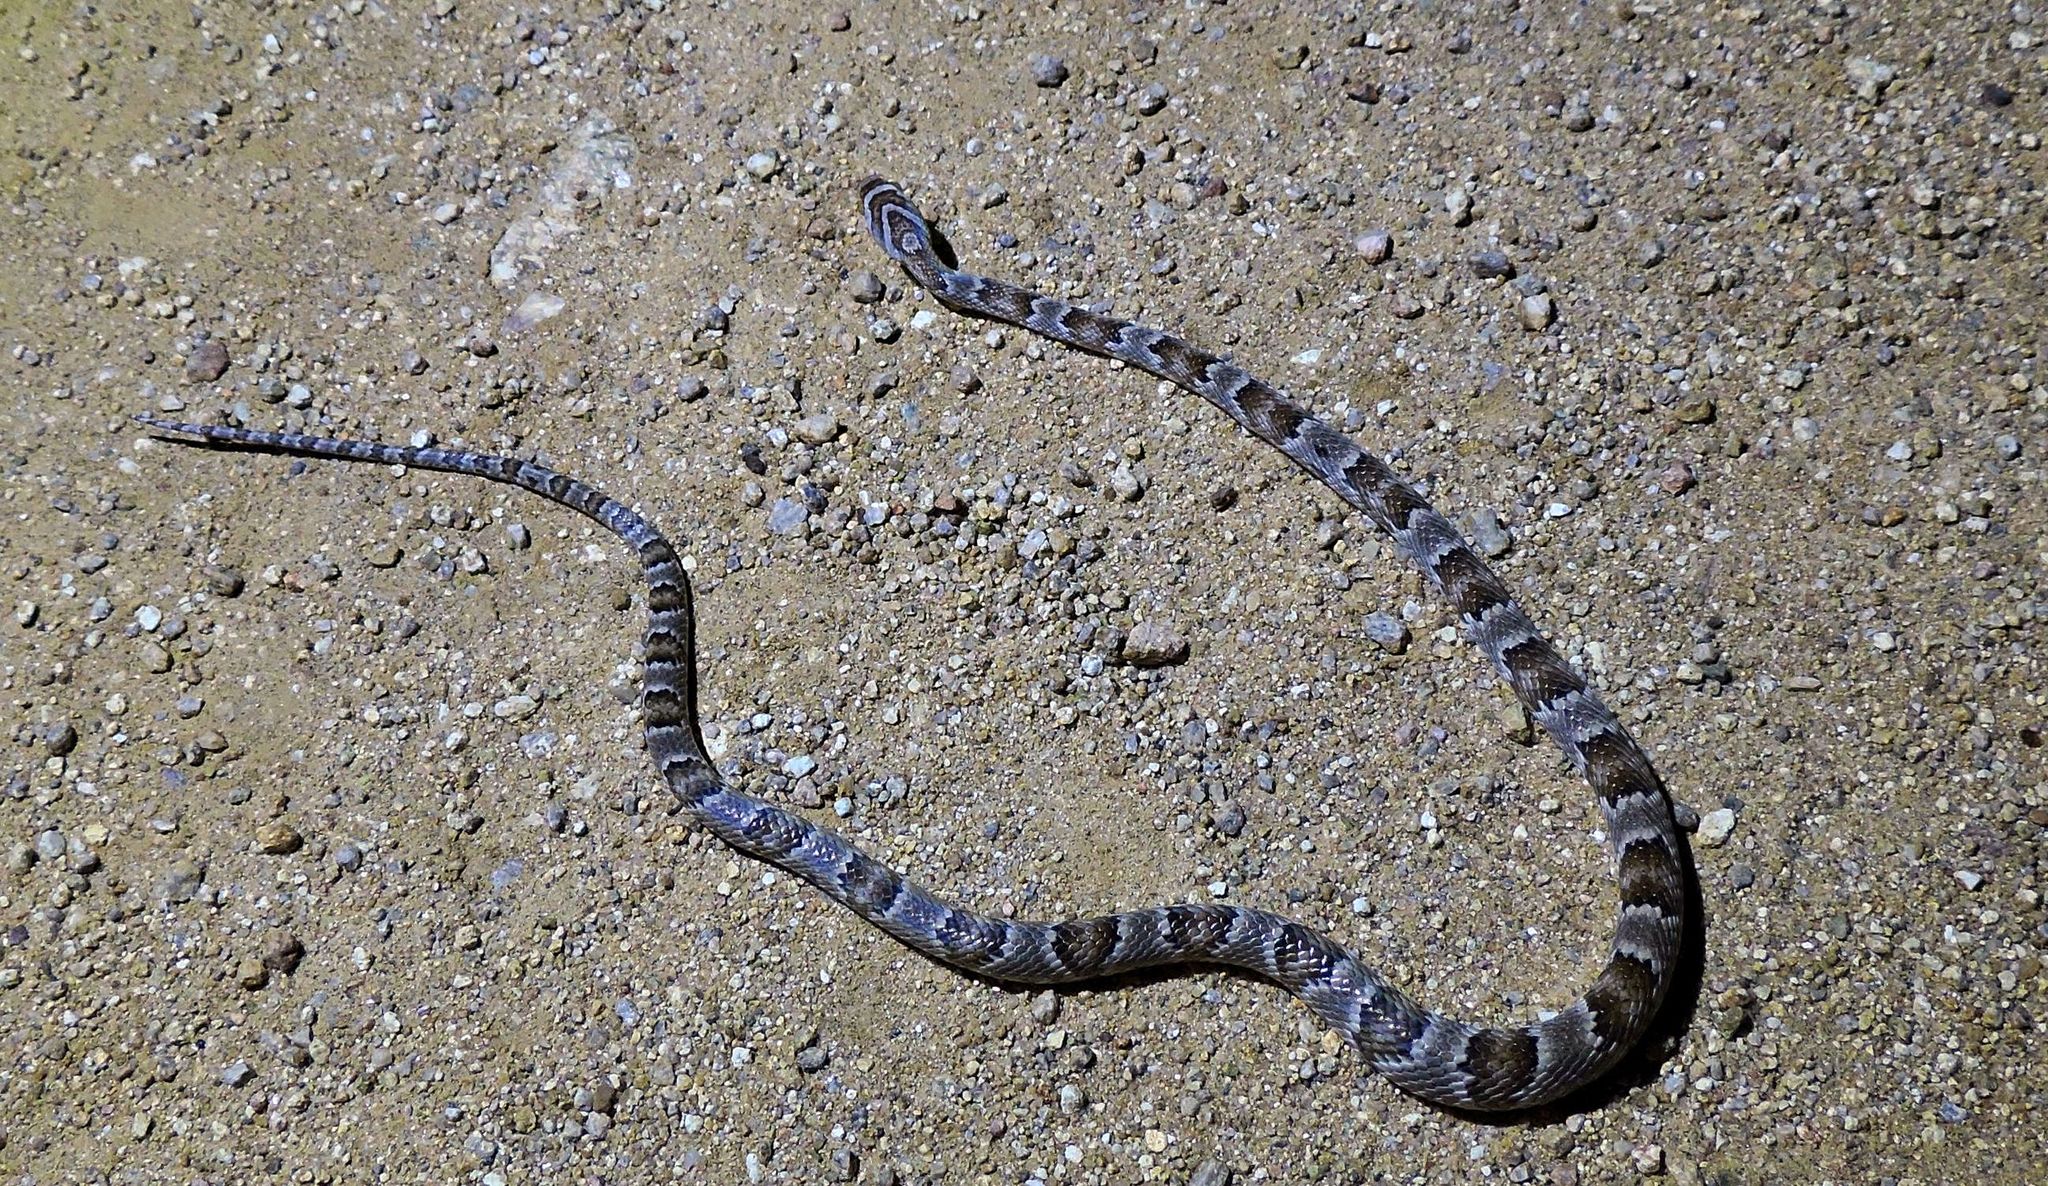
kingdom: Animalia
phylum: Chordata
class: Squamata
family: Colubridae
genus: Trimorphodon
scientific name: Trimorphodon lambda
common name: Sonoran lyre snake
